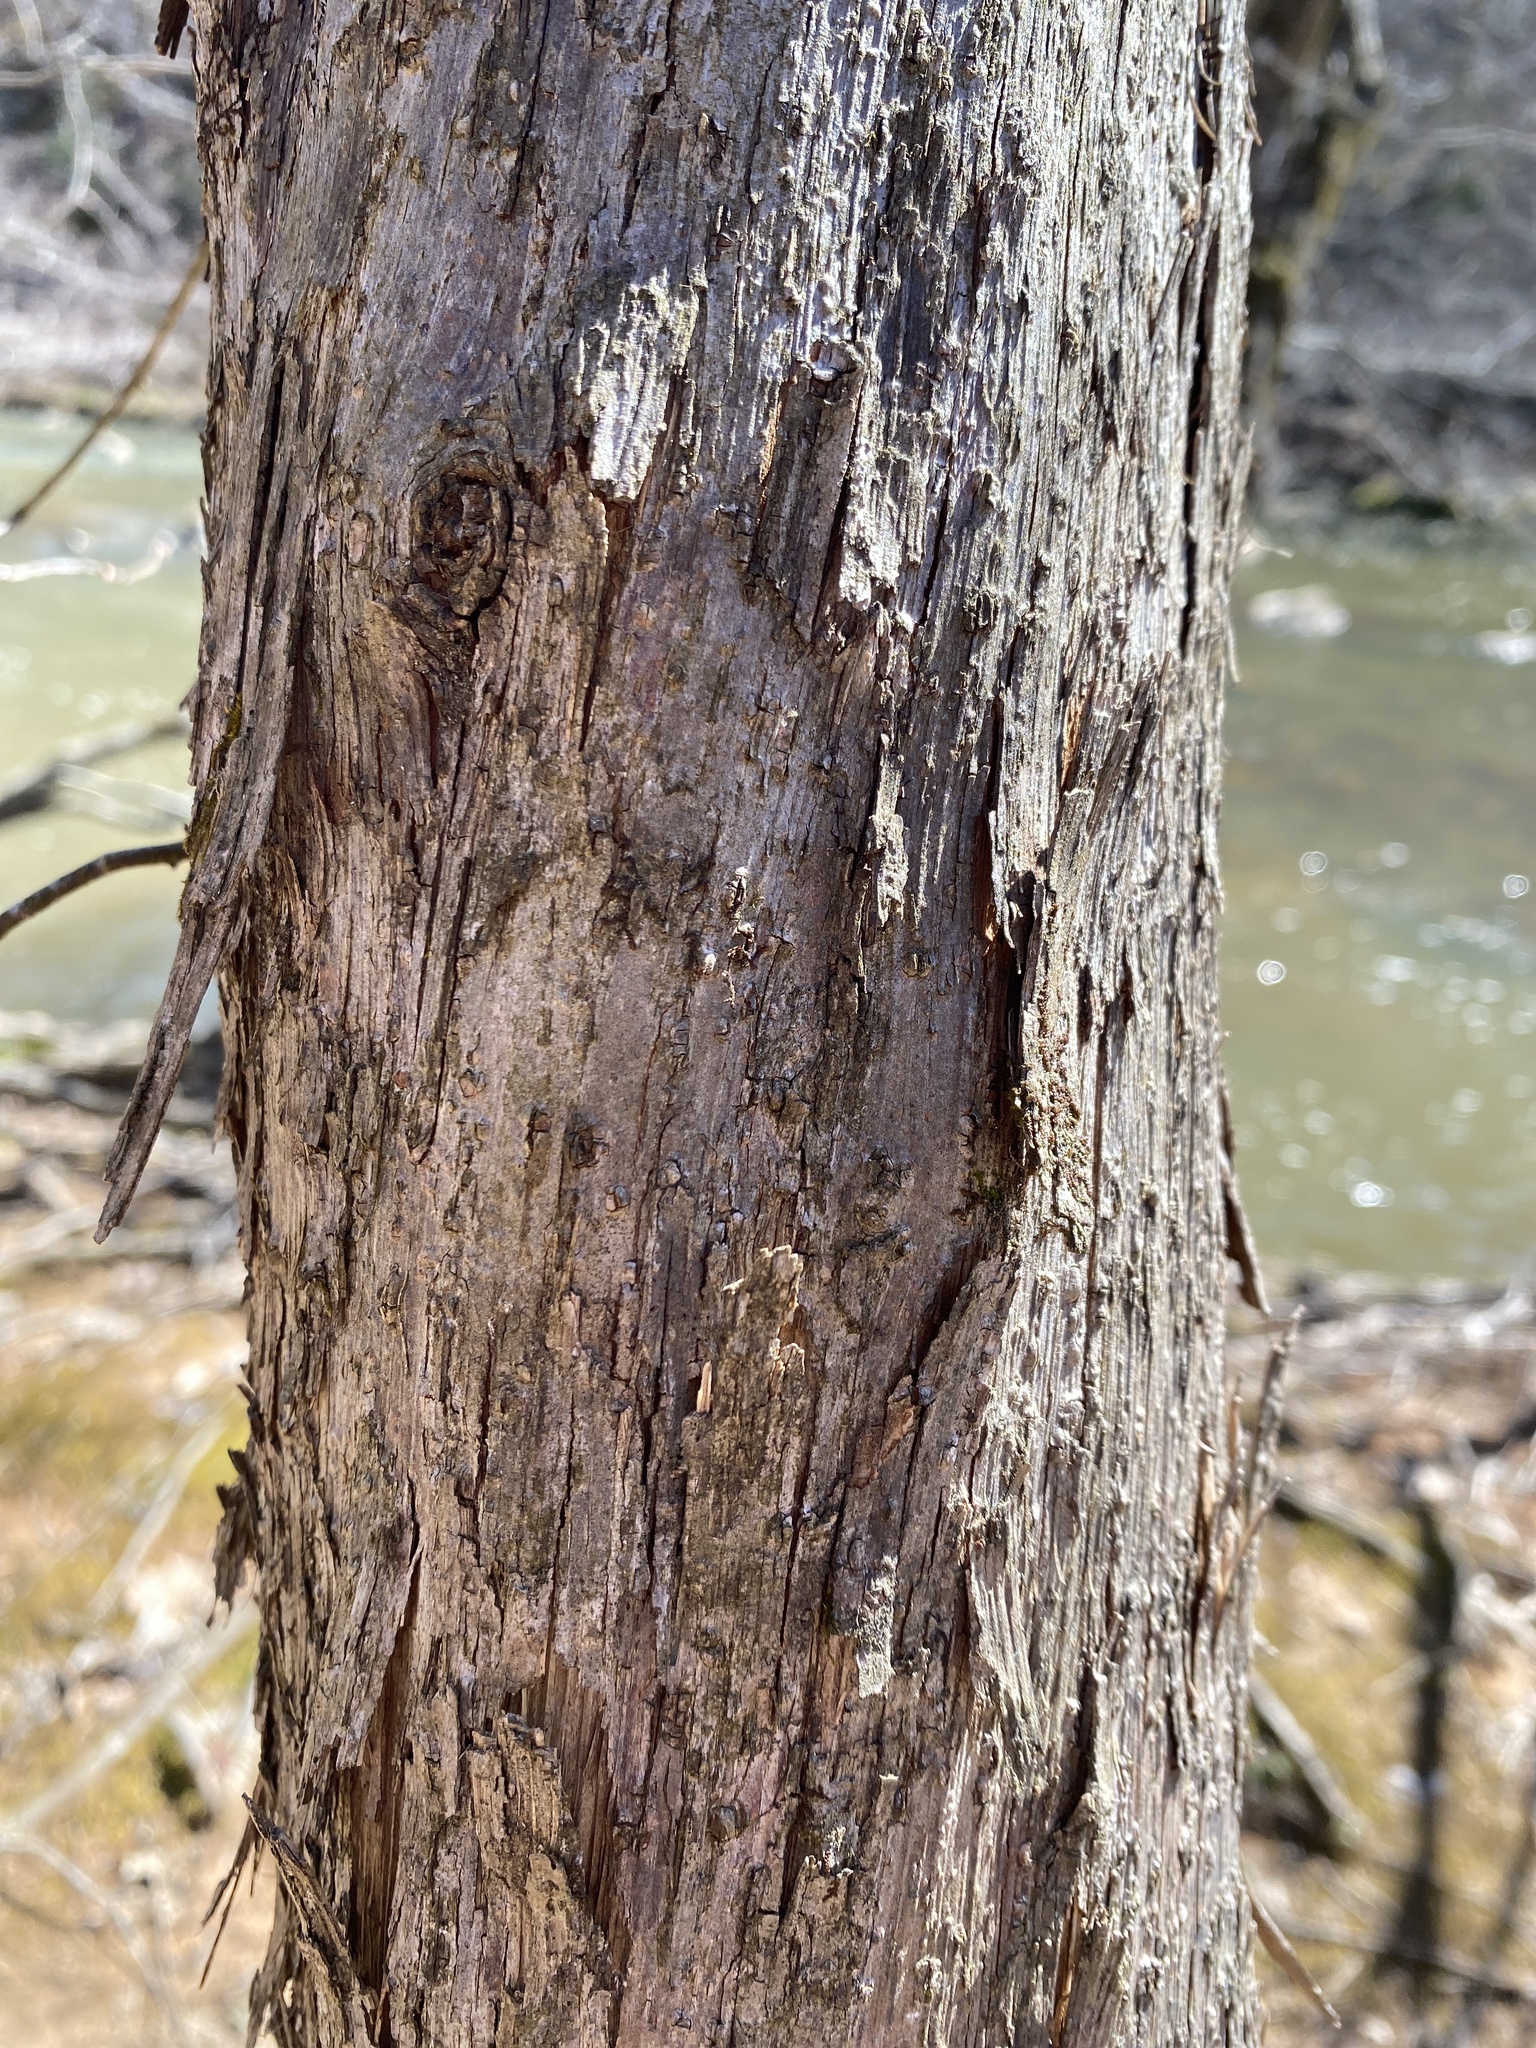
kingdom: Plantae
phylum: Tracheophyta
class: Magnoliopsida
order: Fagales
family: Betulaceae
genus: Ostrya
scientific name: Ostrya virginiana
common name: Ironwood
